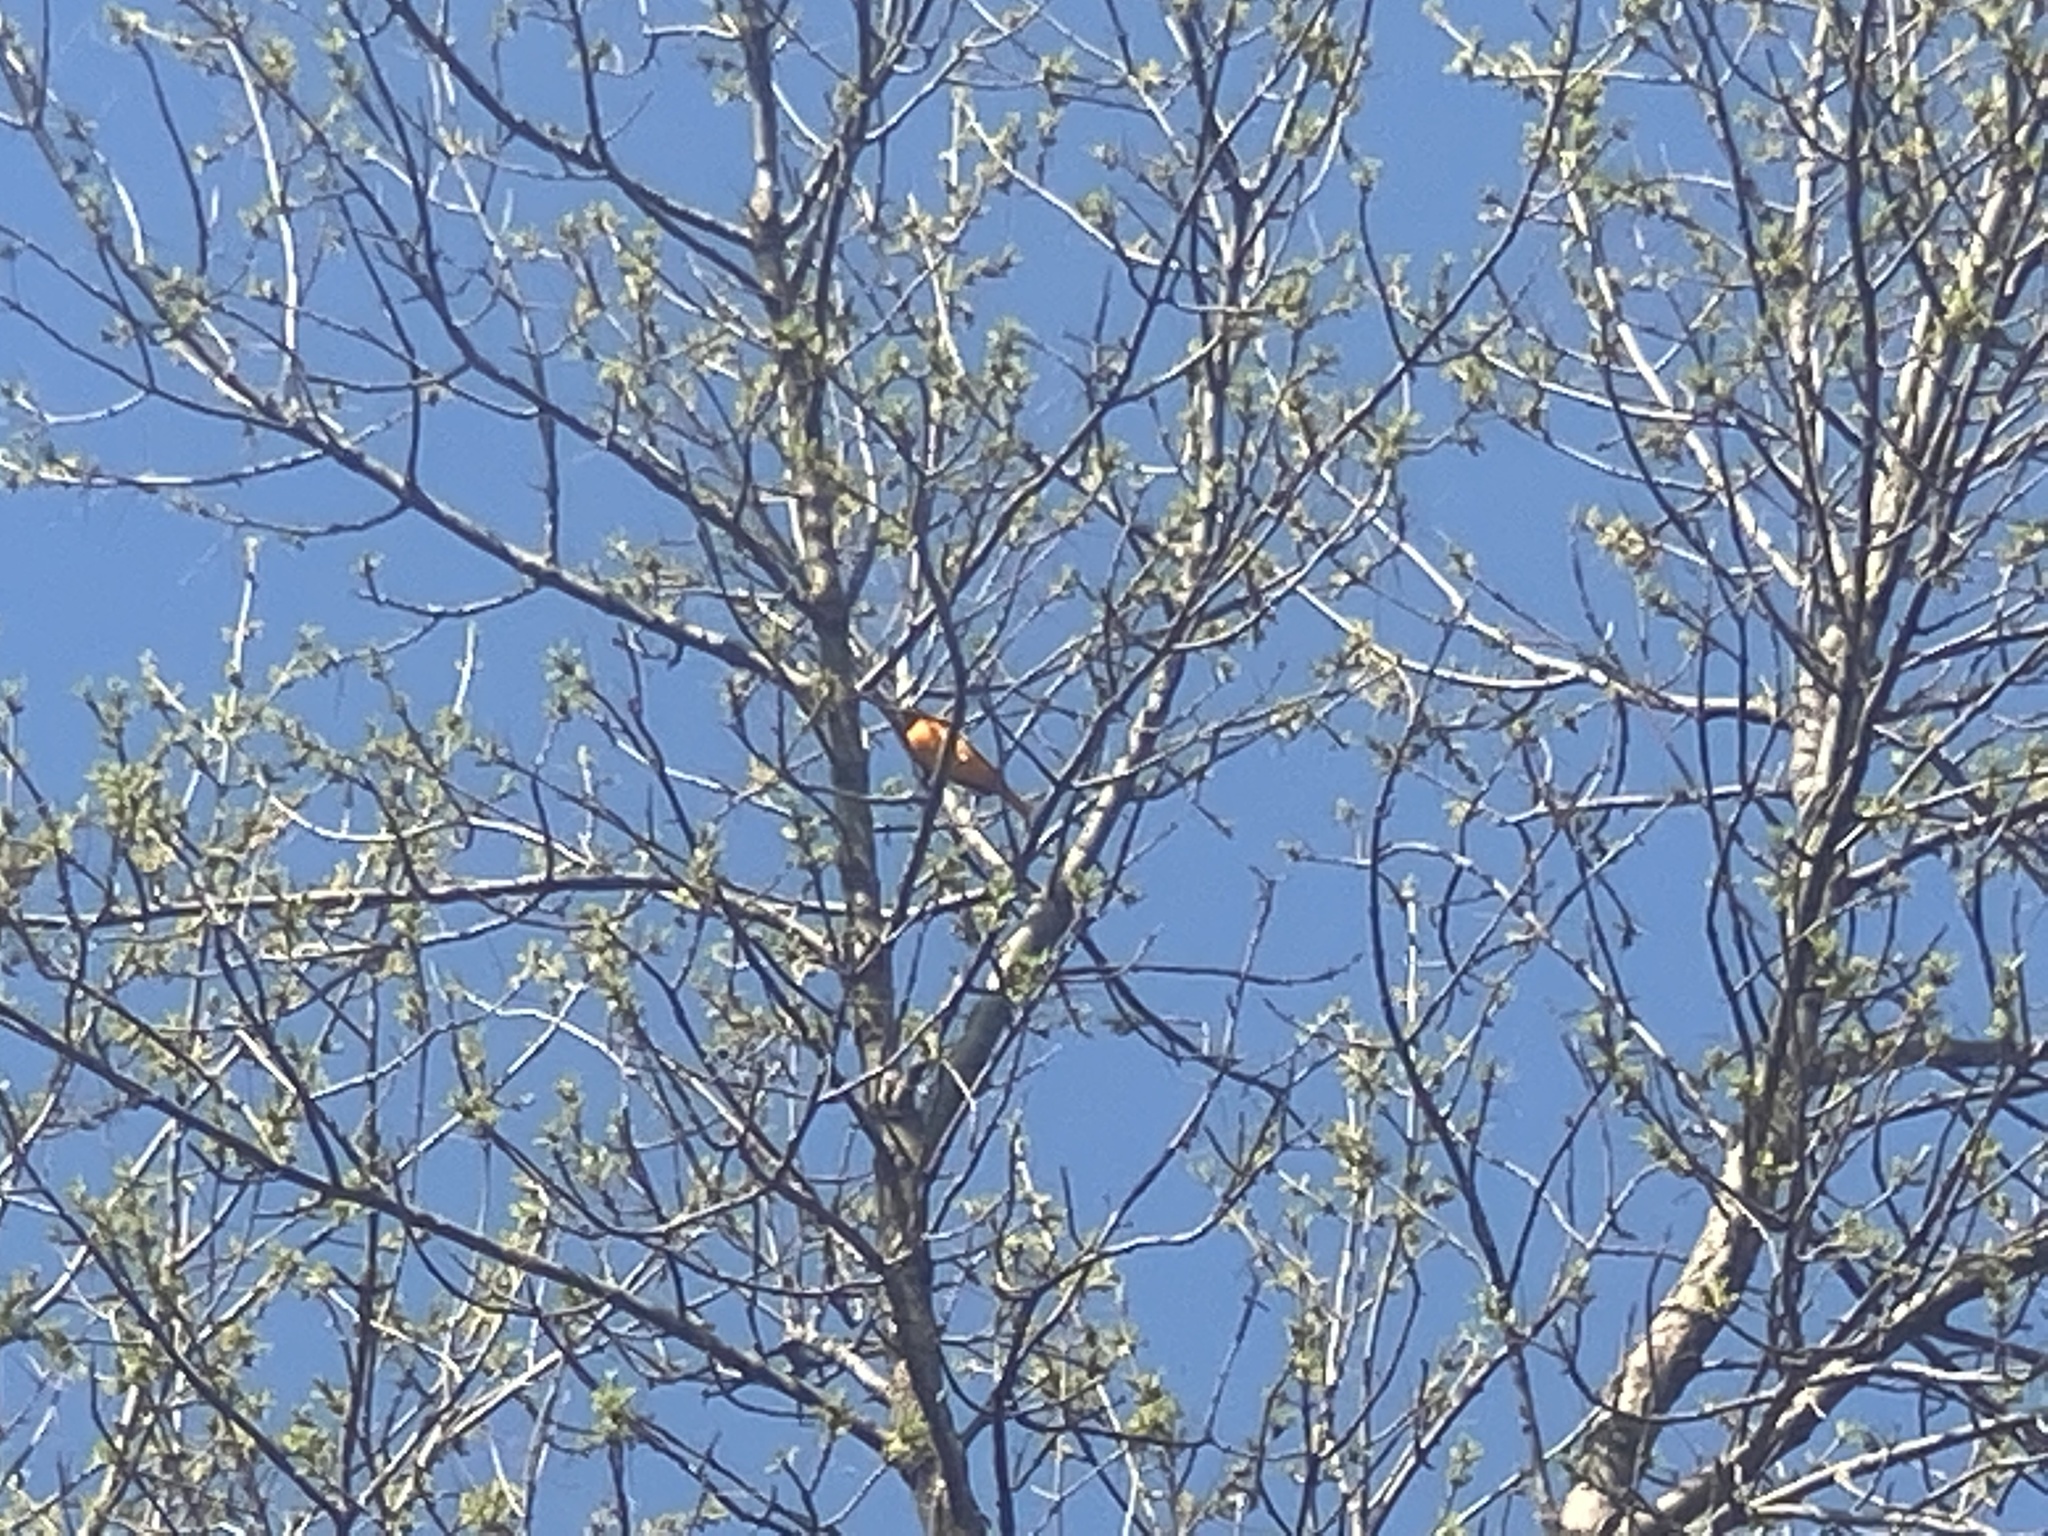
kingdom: Animalia
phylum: Chordata
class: Aves
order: Passeriformes
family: Icteridae
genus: Icterus
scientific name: Icterus galbula
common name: Baltimore oriole
